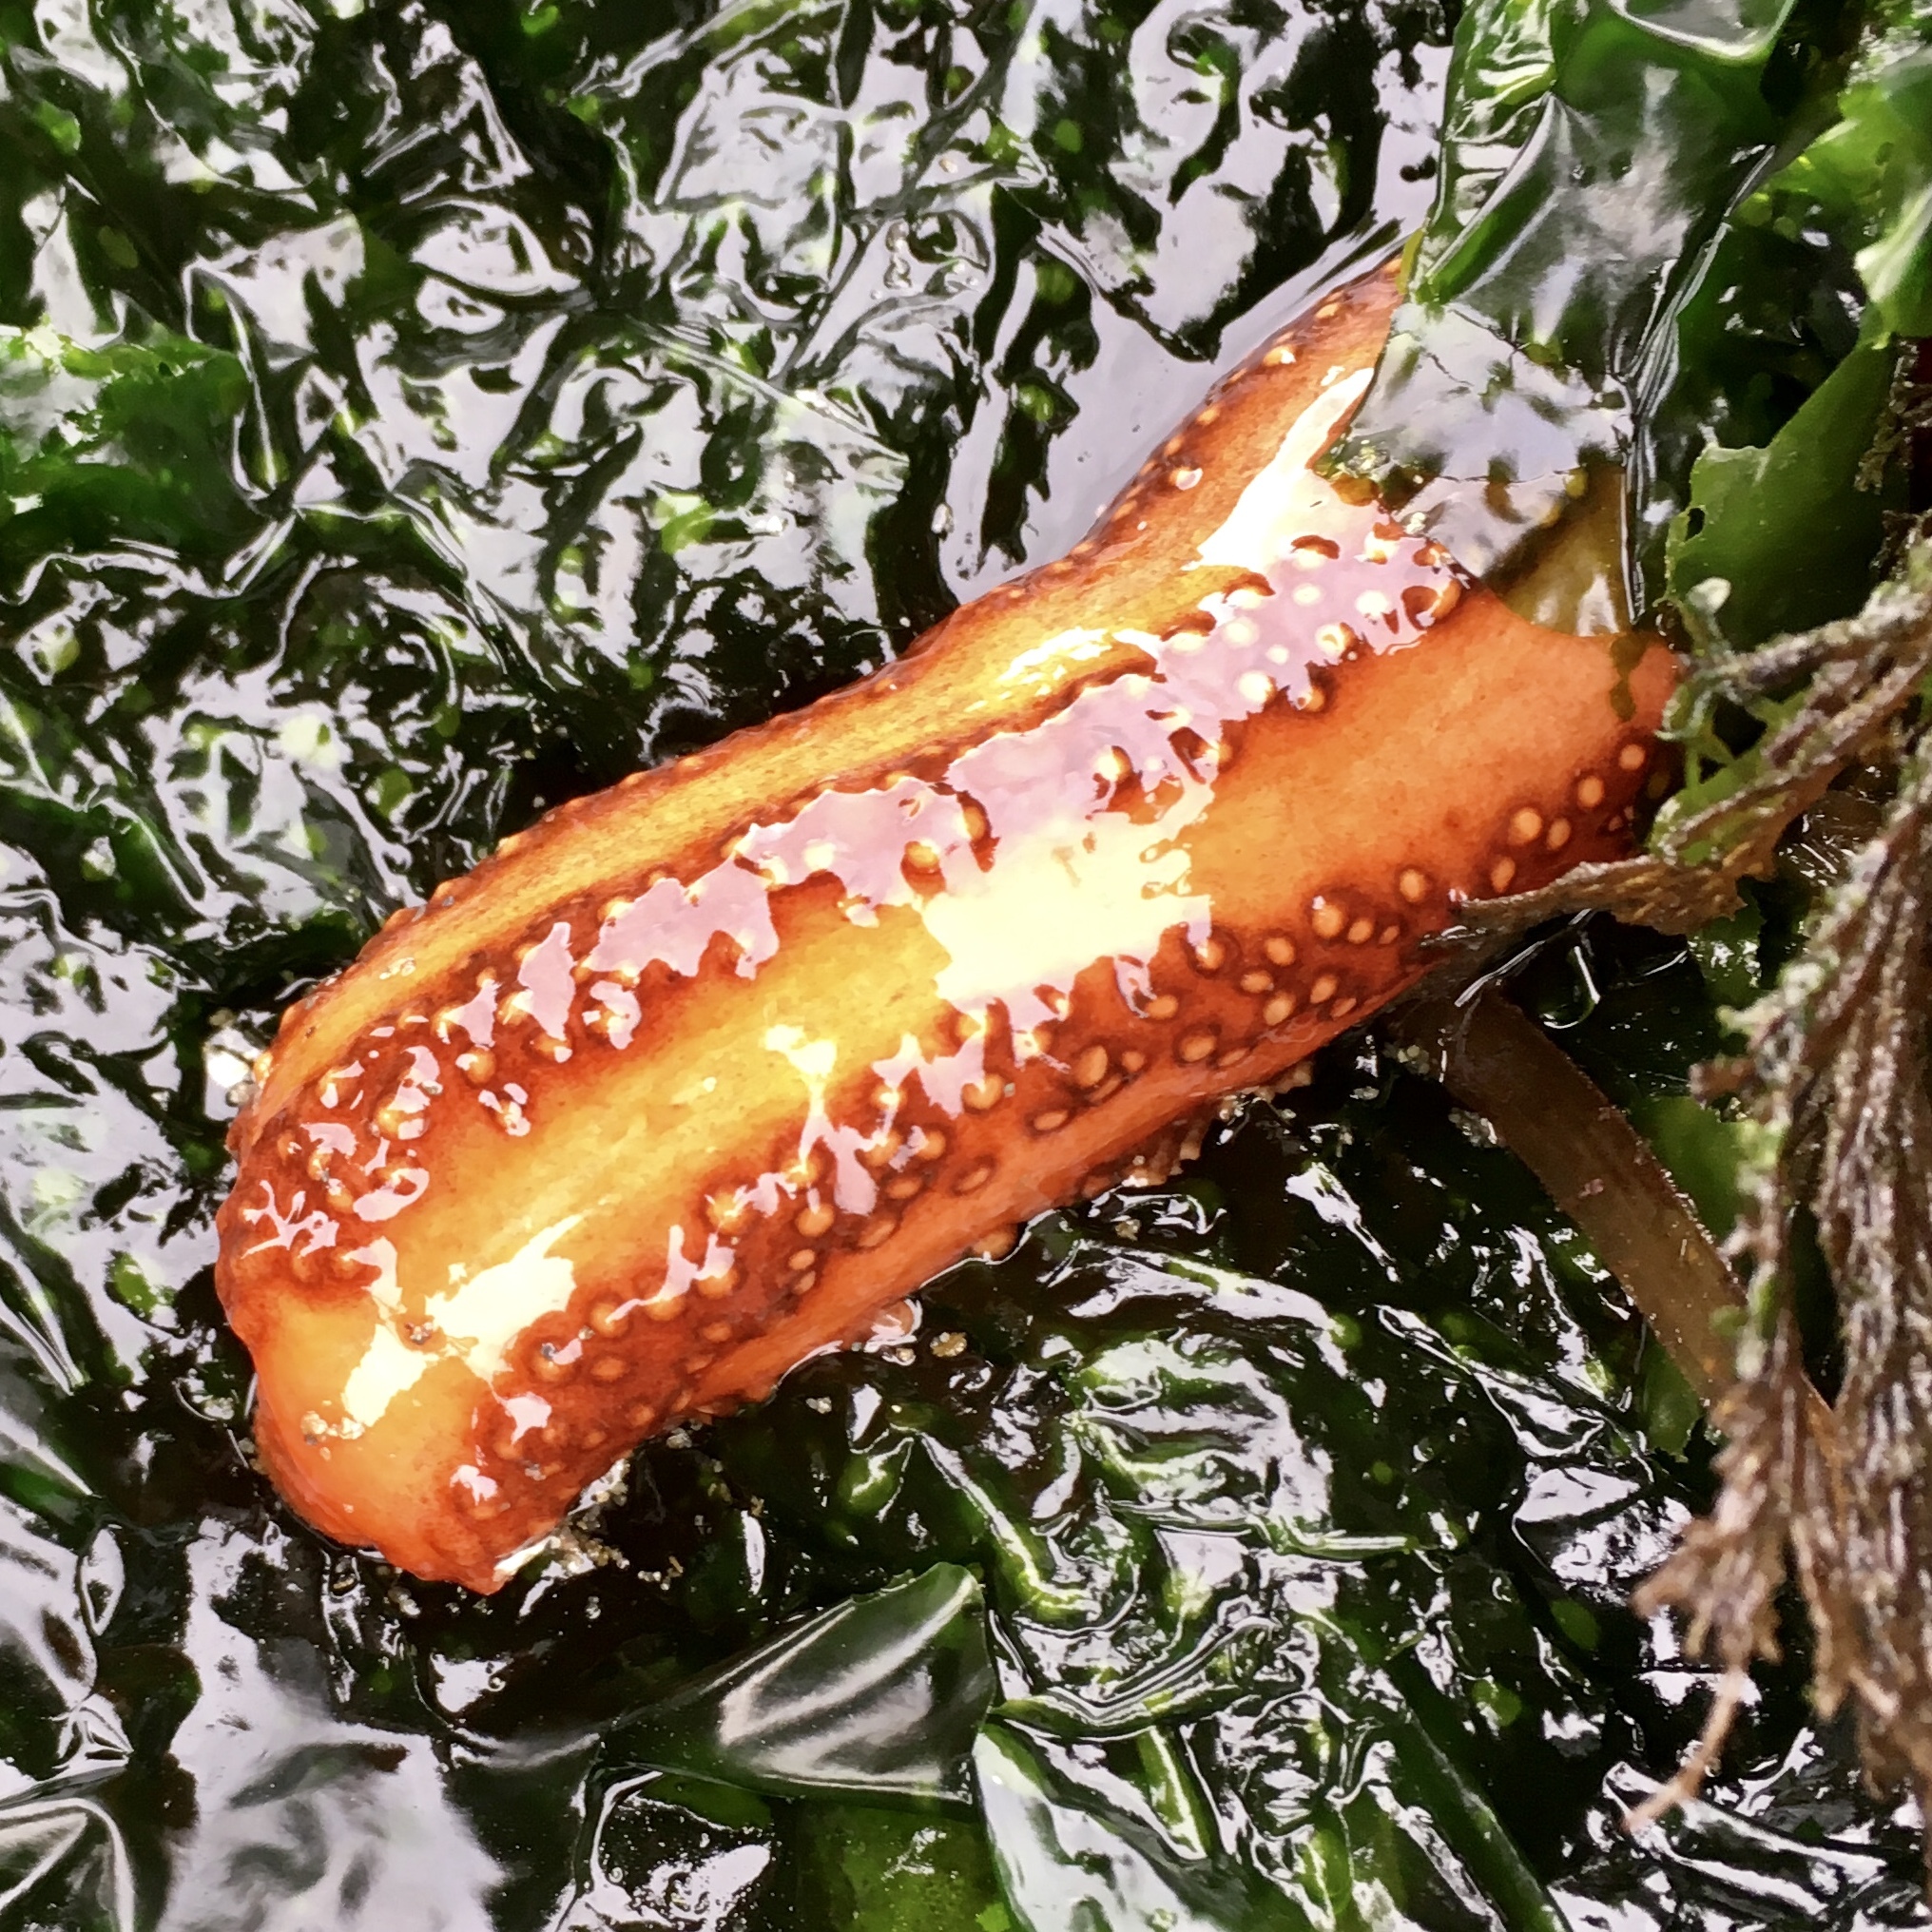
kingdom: Animalia
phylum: Echinodermata
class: Holothuroidea
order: Dendrochirotida
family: Cucumariidae
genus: Cucumaria
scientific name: Cucumaria miniata
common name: Orange sea cucumber
